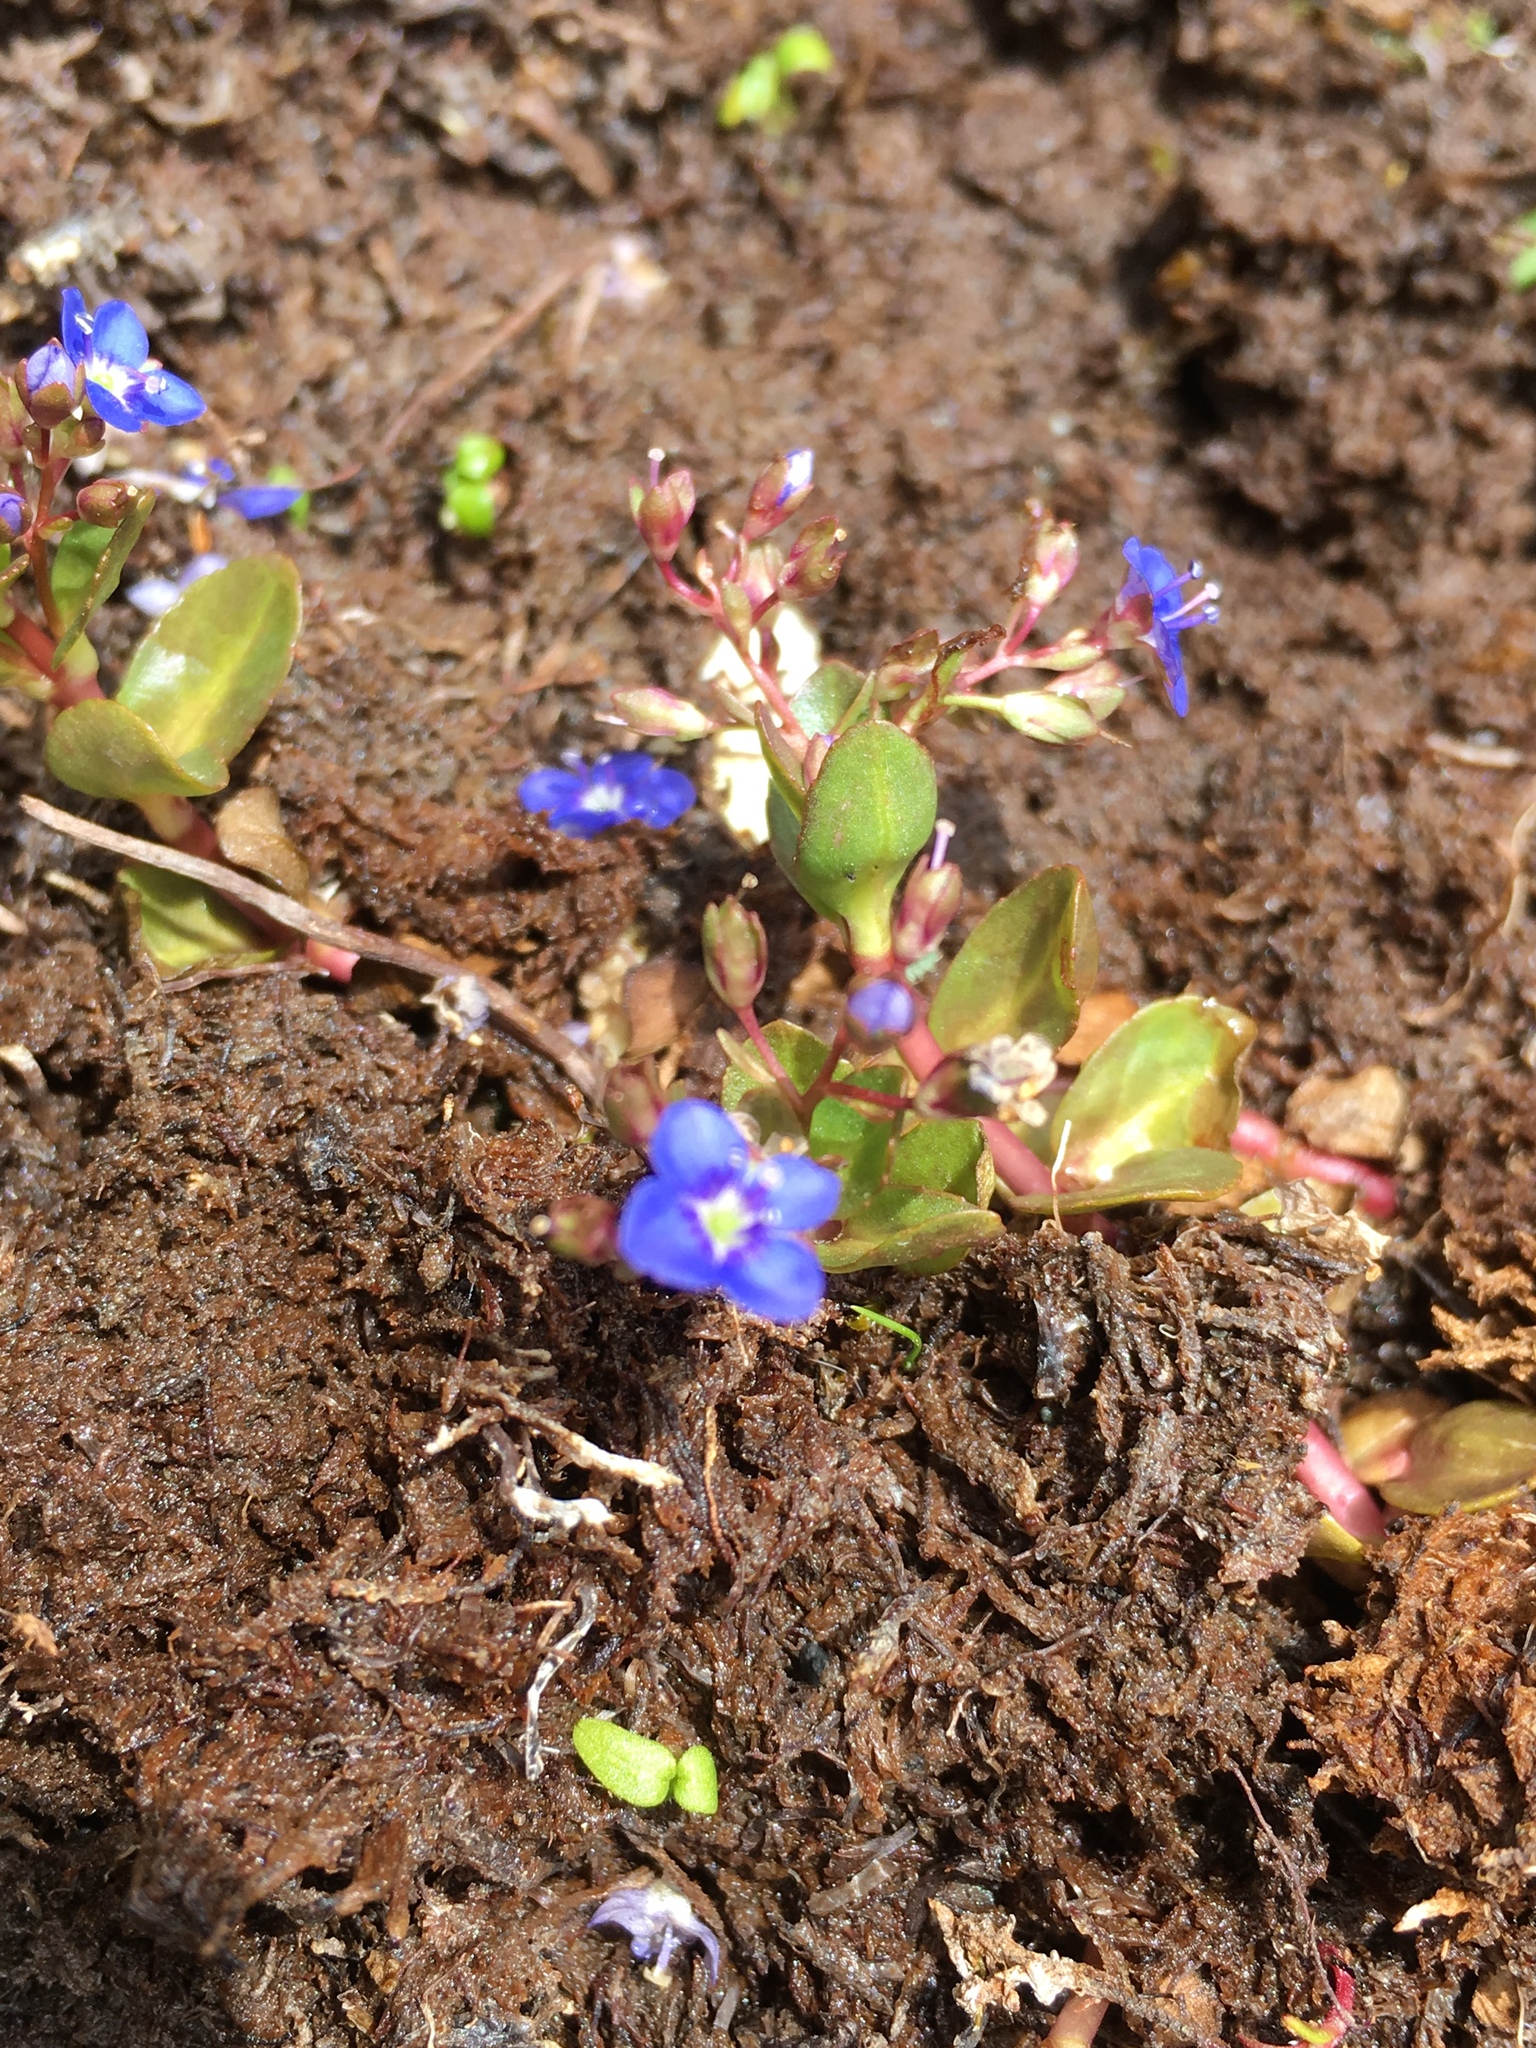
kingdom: Plantae
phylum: Tracheophyta
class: Magnoliopsida
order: Lamiales
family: Plantaginaceae
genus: Veronica
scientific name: Veronica beccabunga
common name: Brooklime
